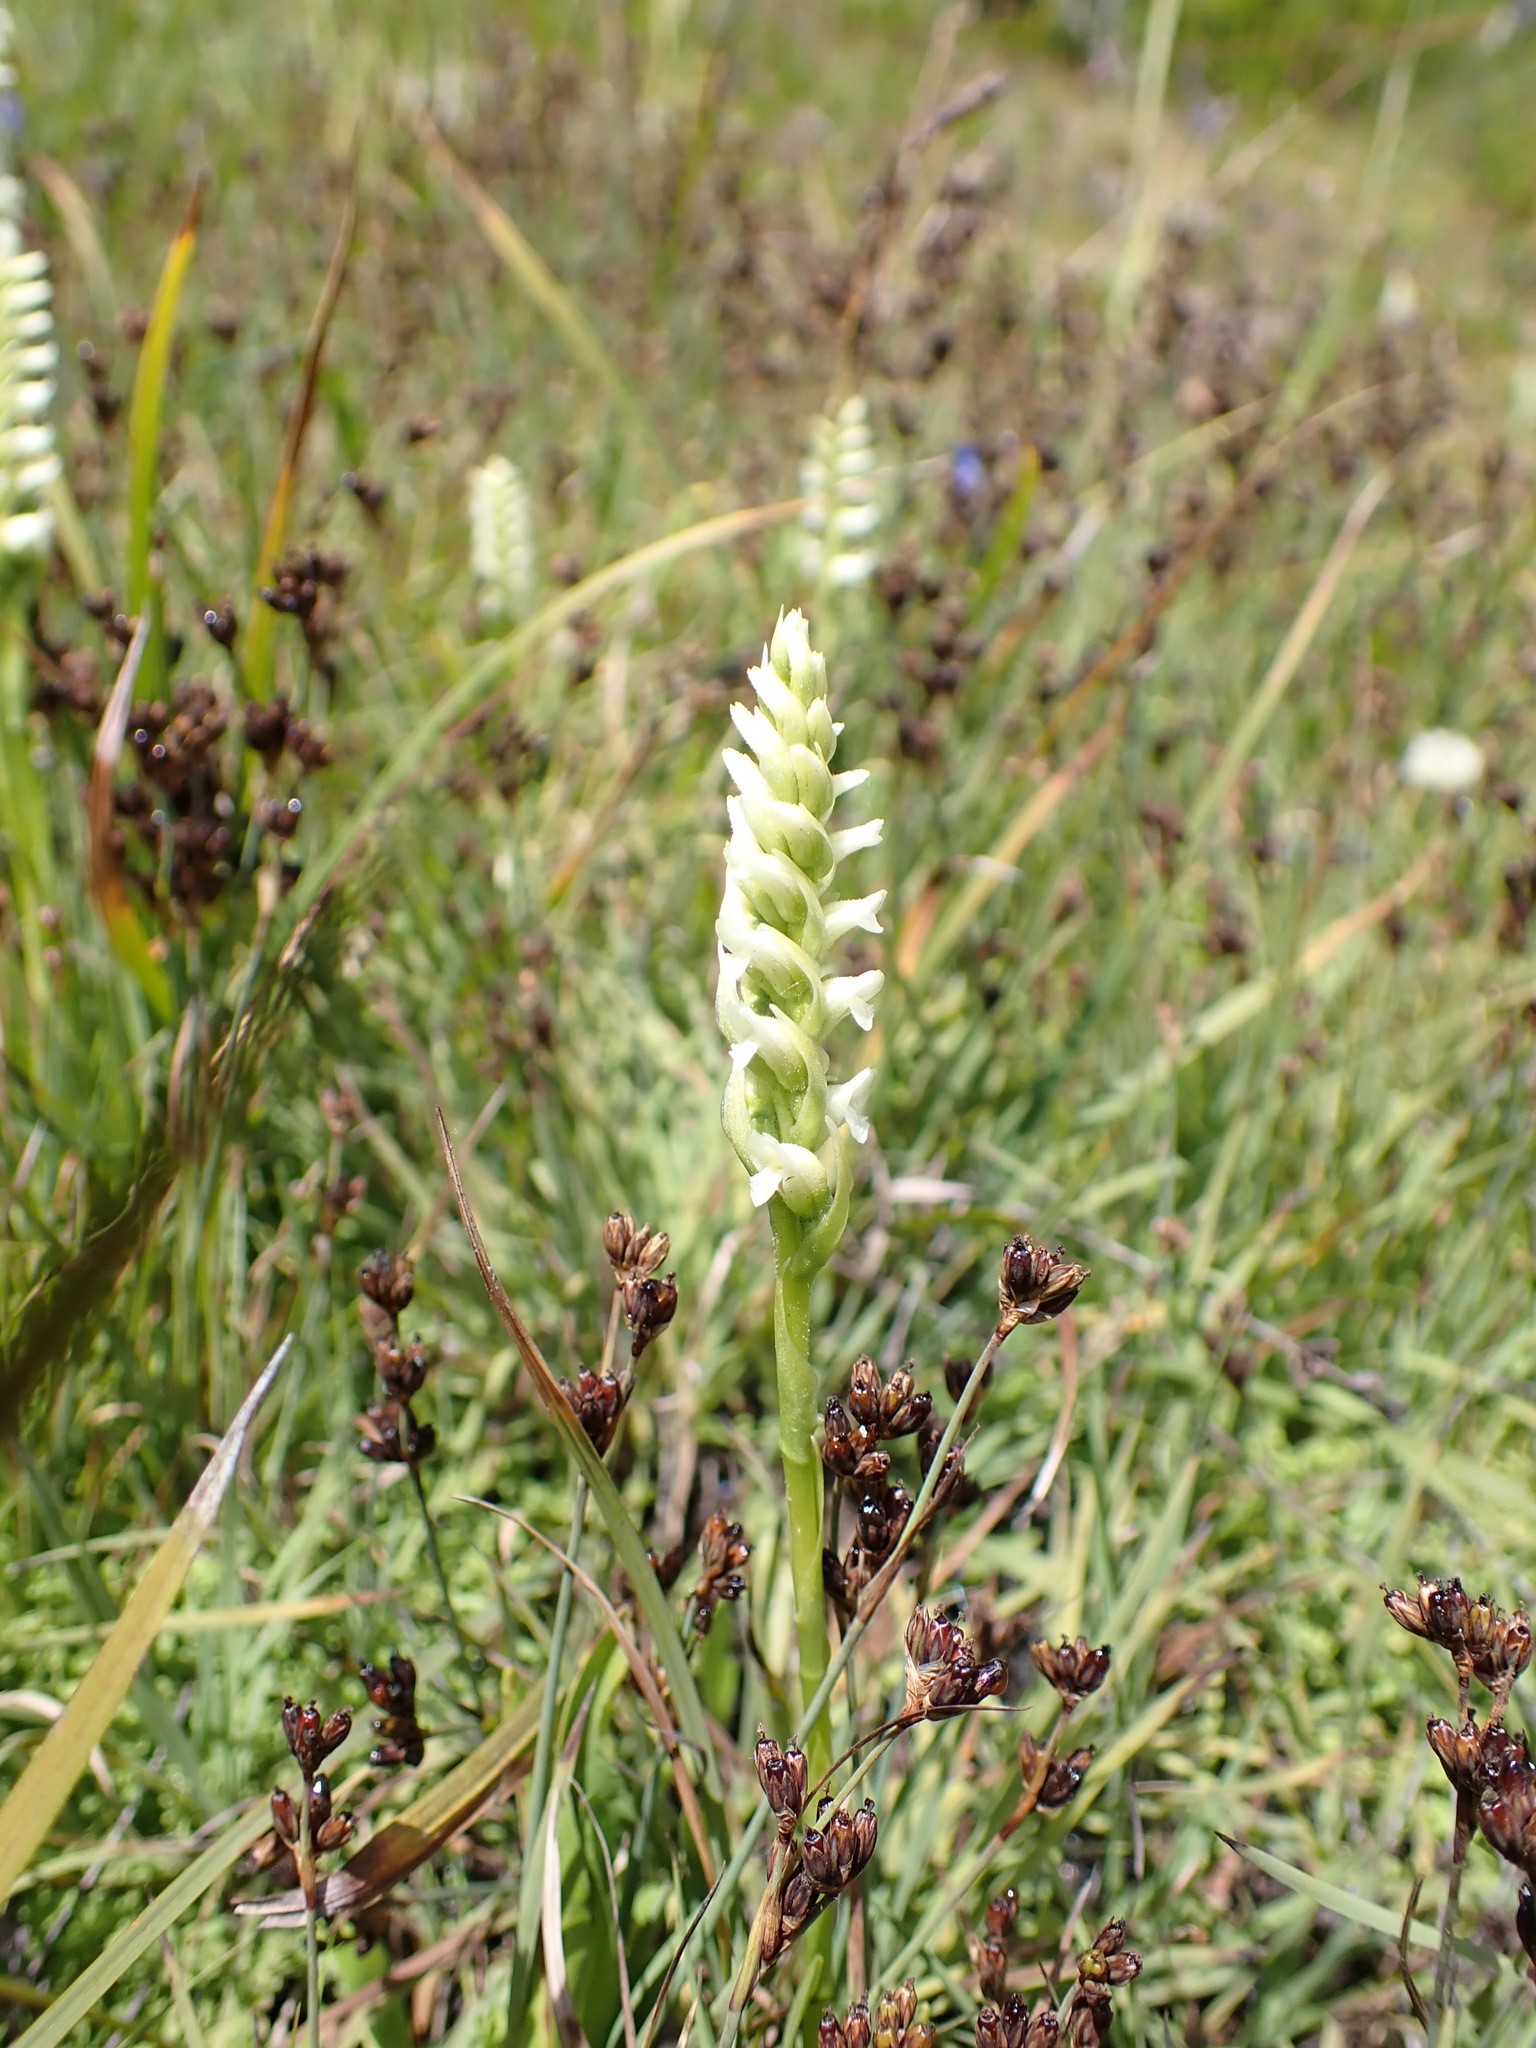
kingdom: Plantae
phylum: Tracheophyta
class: Liliopsida
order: Asparagales
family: Orchidaceae
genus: Spiranthes
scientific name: Spiranthes romanzoffiana
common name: Irish lady's-tresses
